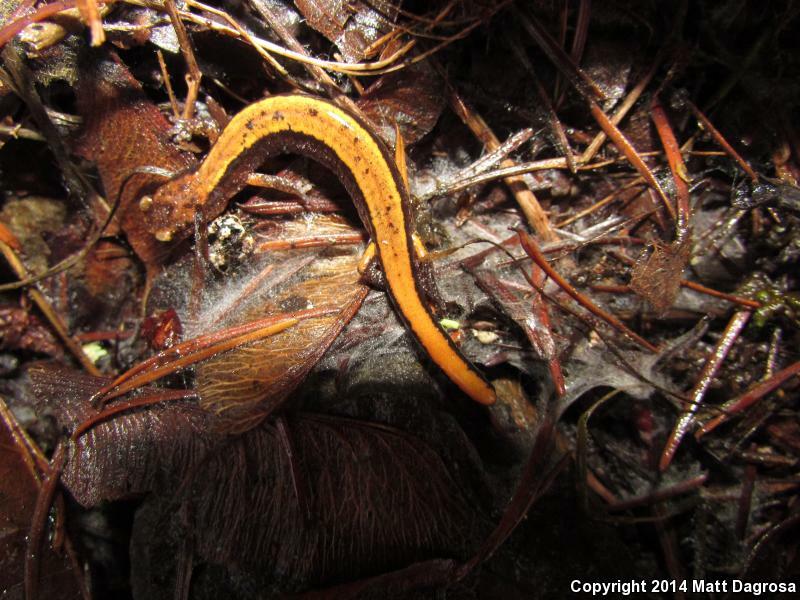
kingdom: Animalia
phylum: Chordata
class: Amphibia
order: Caudata
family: Plethodontidae
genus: Plethodon
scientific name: Plethodon vehiculum
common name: Western red-backed salamander
